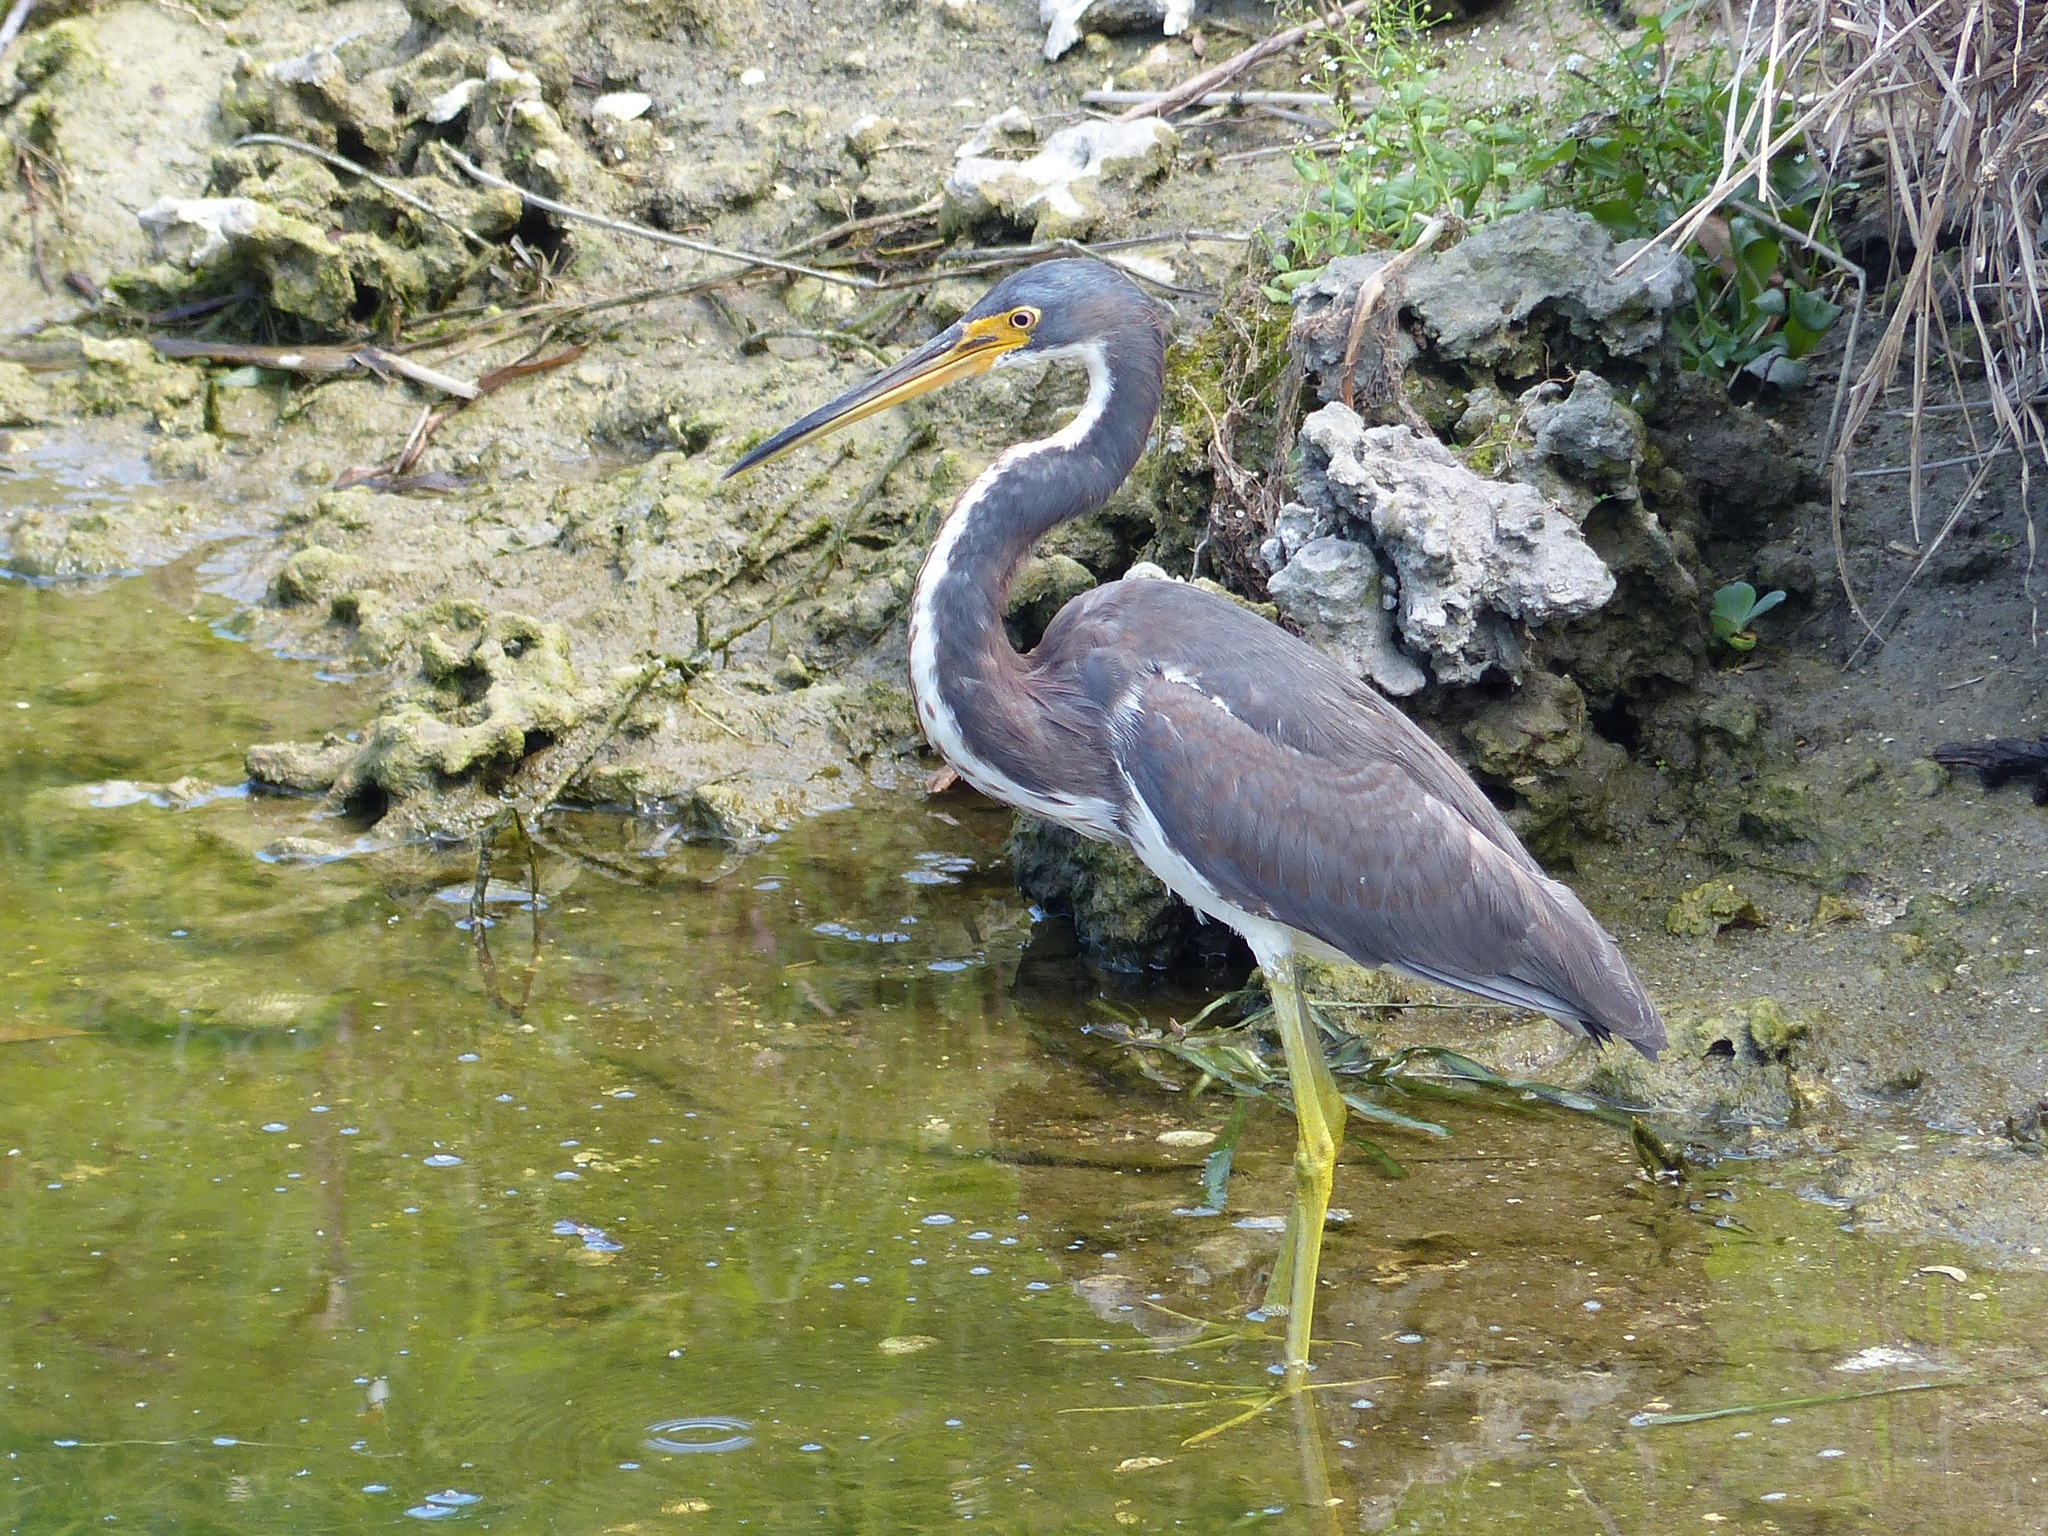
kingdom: Animalia
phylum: Chordata
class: Aves
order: Pelecaniformes
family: Ardeidae
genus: Egretta
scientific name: Egretta tricolor
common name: Tricolored heron
